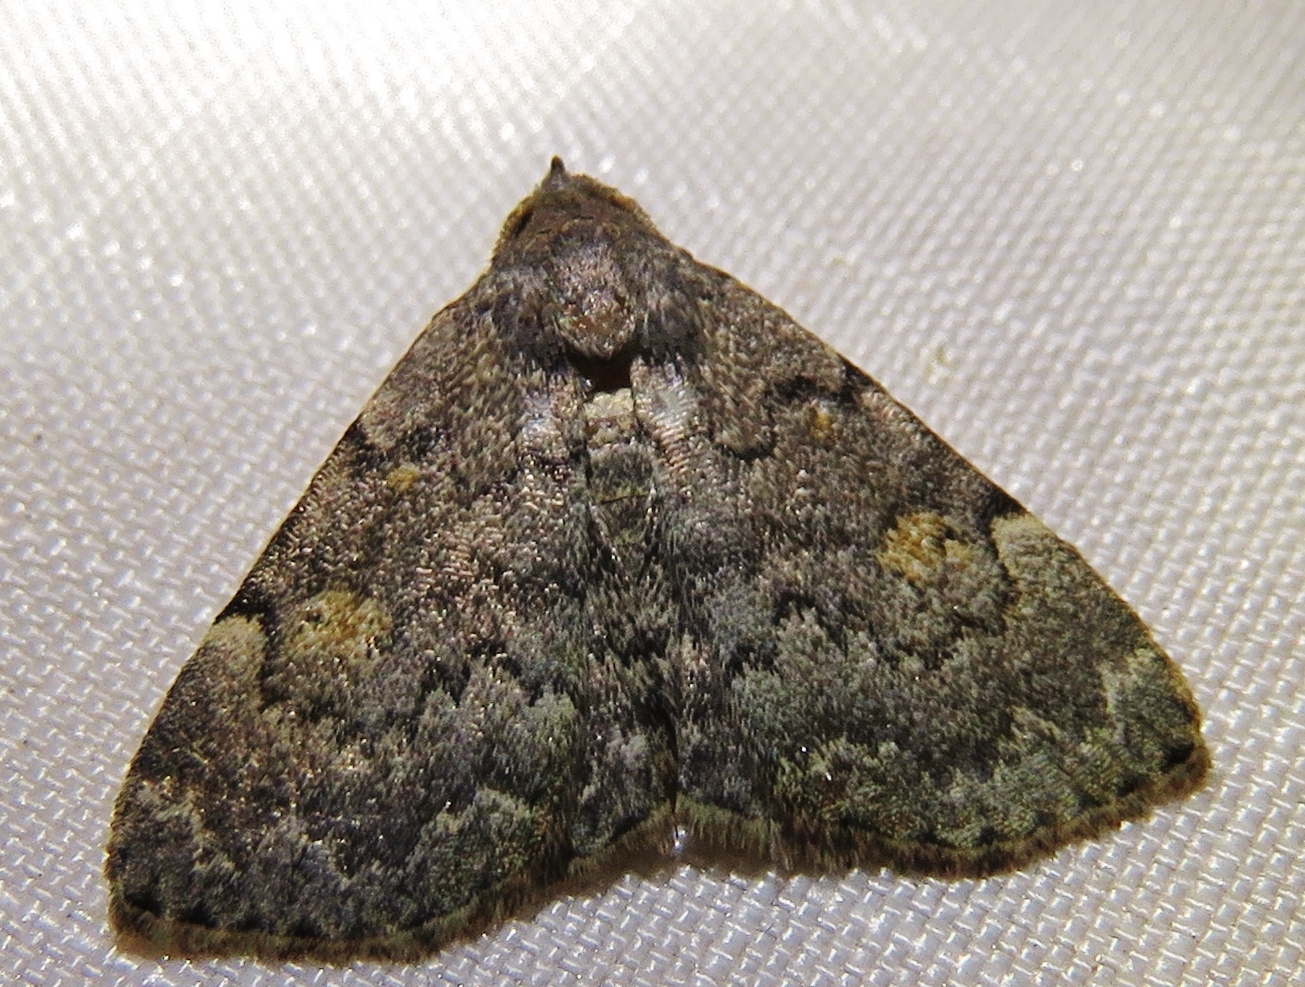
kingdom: Animalia
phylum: Arthropoda
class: Insecta
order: Lepidoptera
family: Erebidae
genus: Idia
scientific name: Idia aemula
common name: Common idia moth
